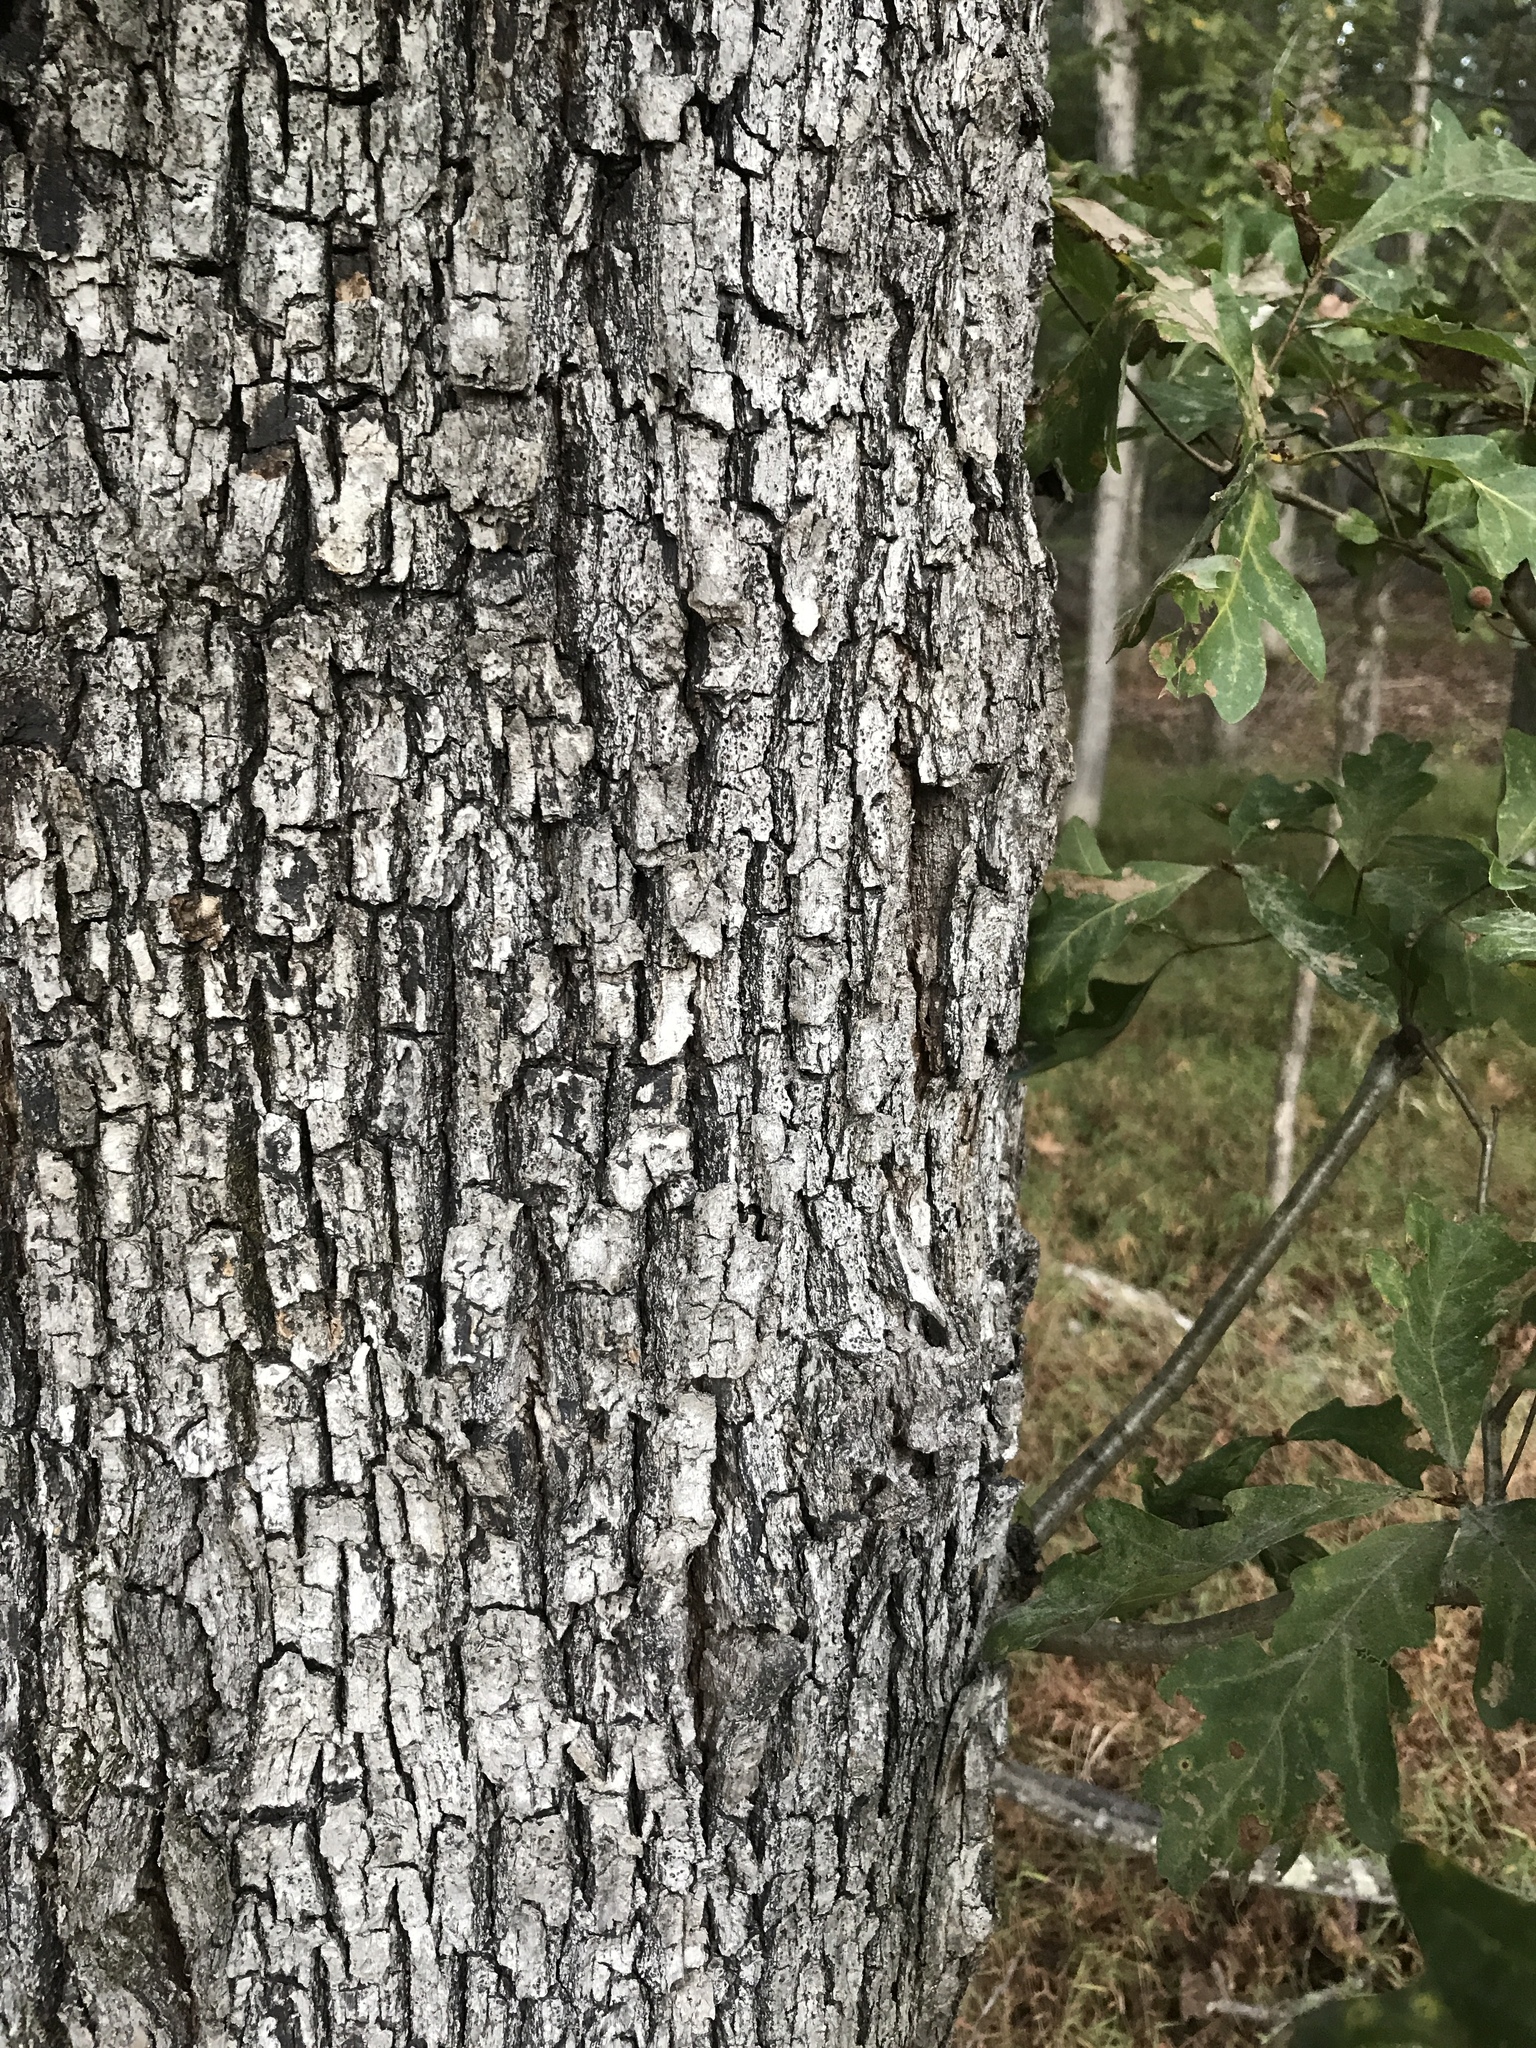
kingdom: Plantae
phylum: Tracheophyta
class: Magnoliopsida
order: Fagales
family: Fagaceae
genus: Quercus
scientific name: Quercus alba
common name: White oak
